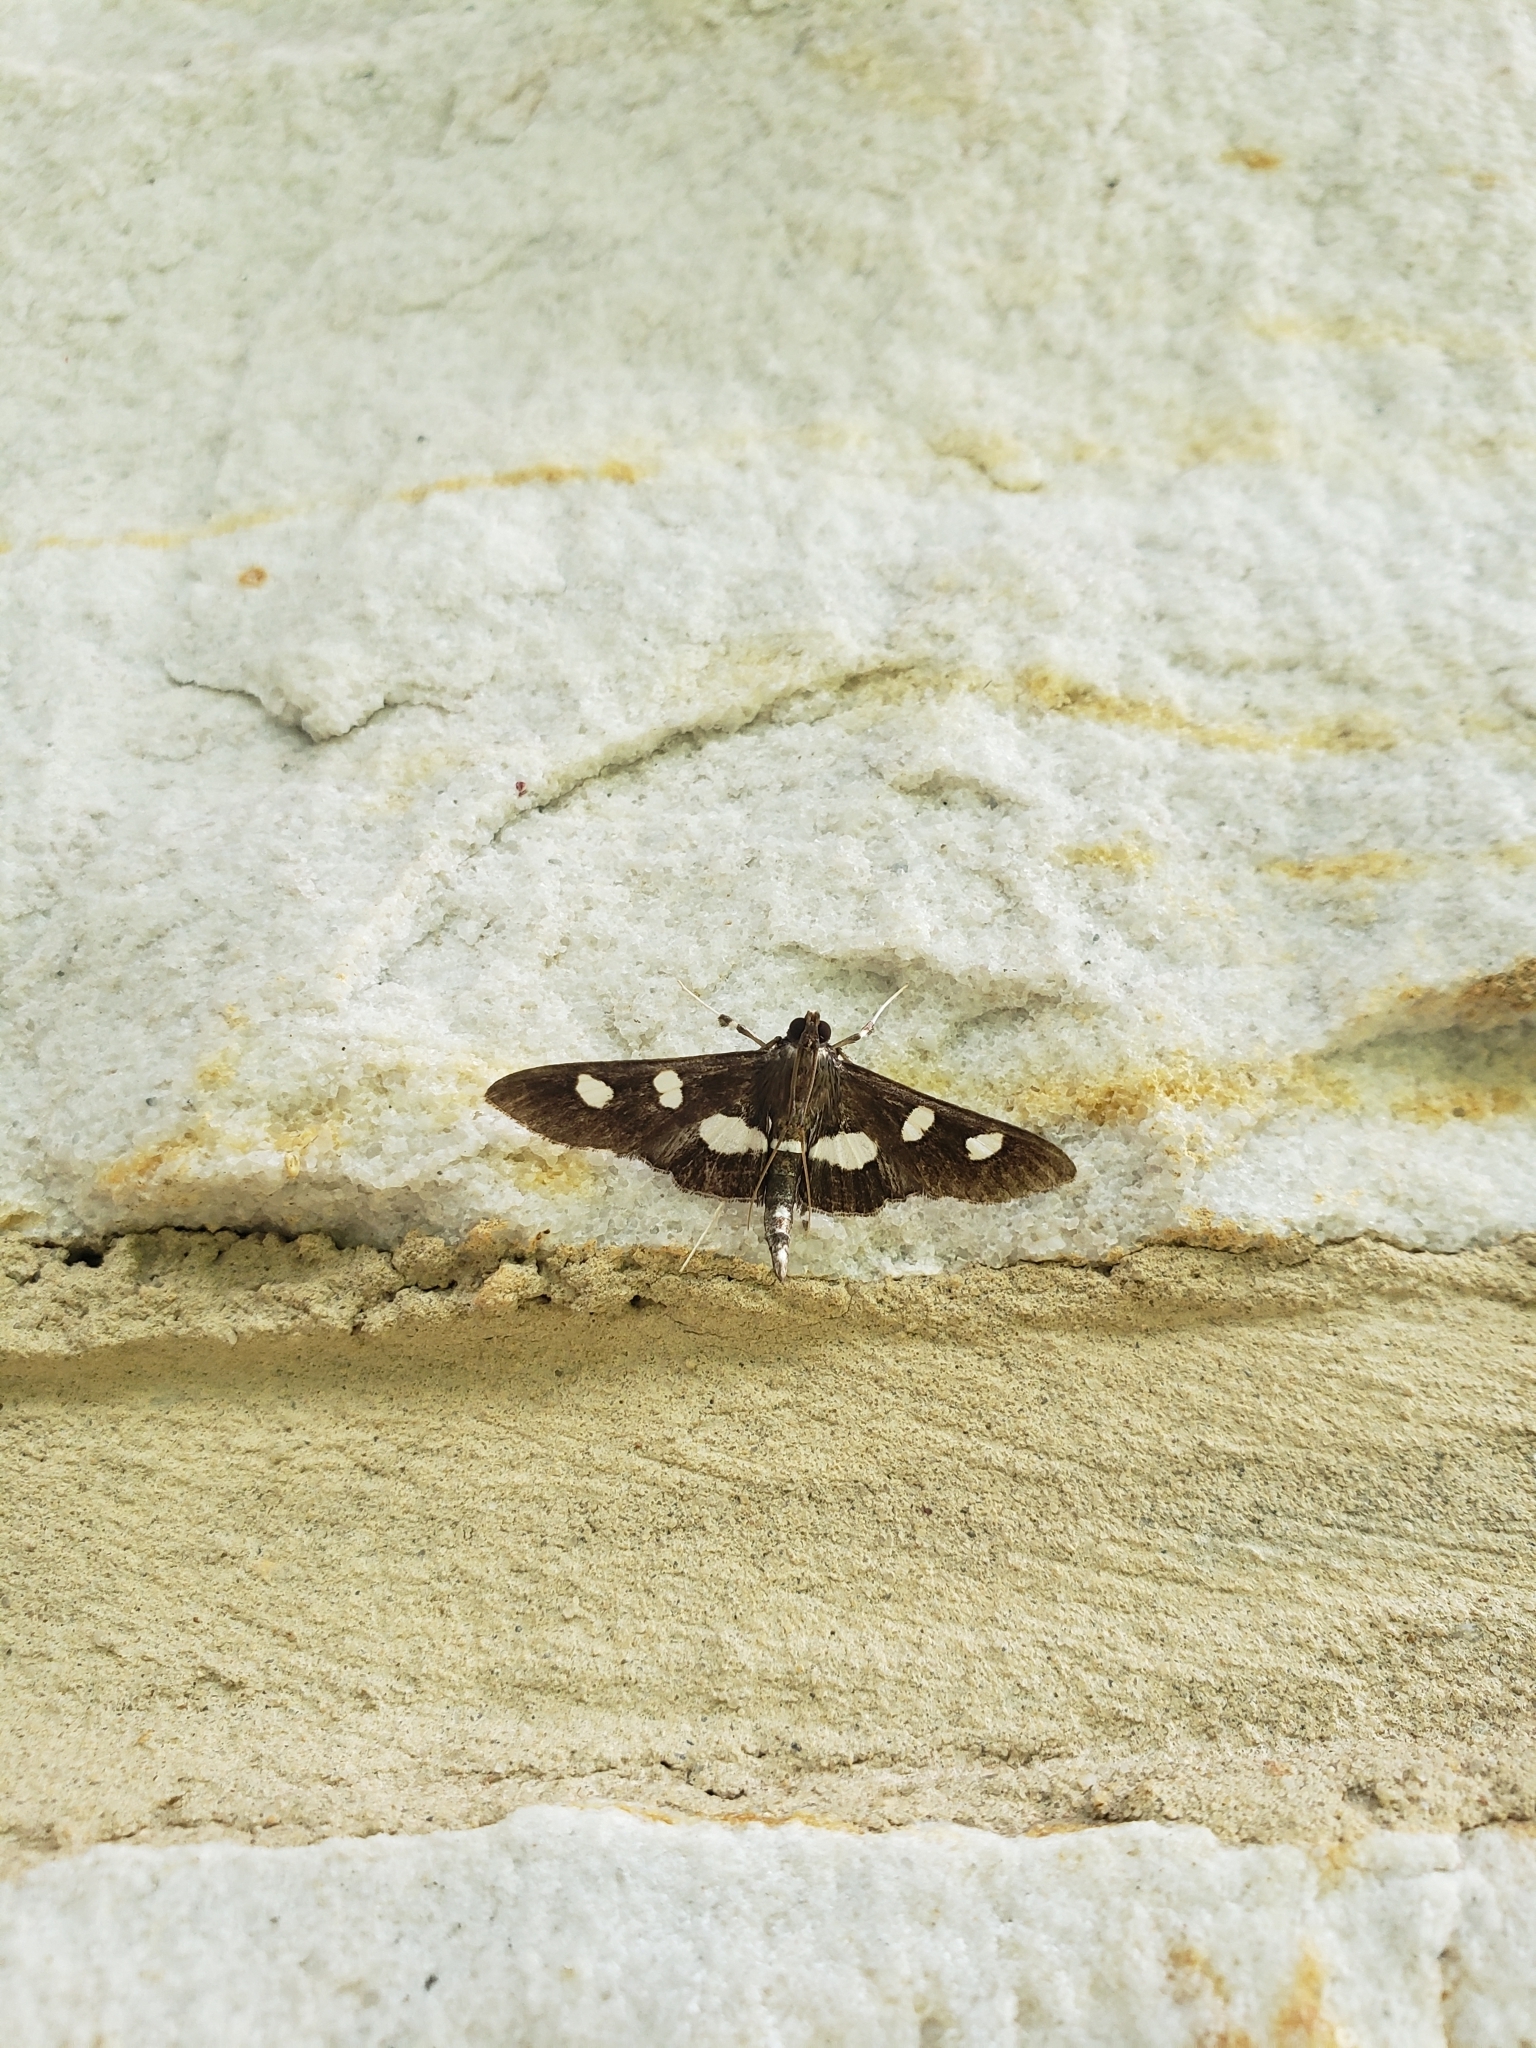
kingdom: Animalia
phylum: Arthropoda
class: Insecta
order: Lepidoptera
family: Crambidae
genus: Desmia
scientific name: Desmia
